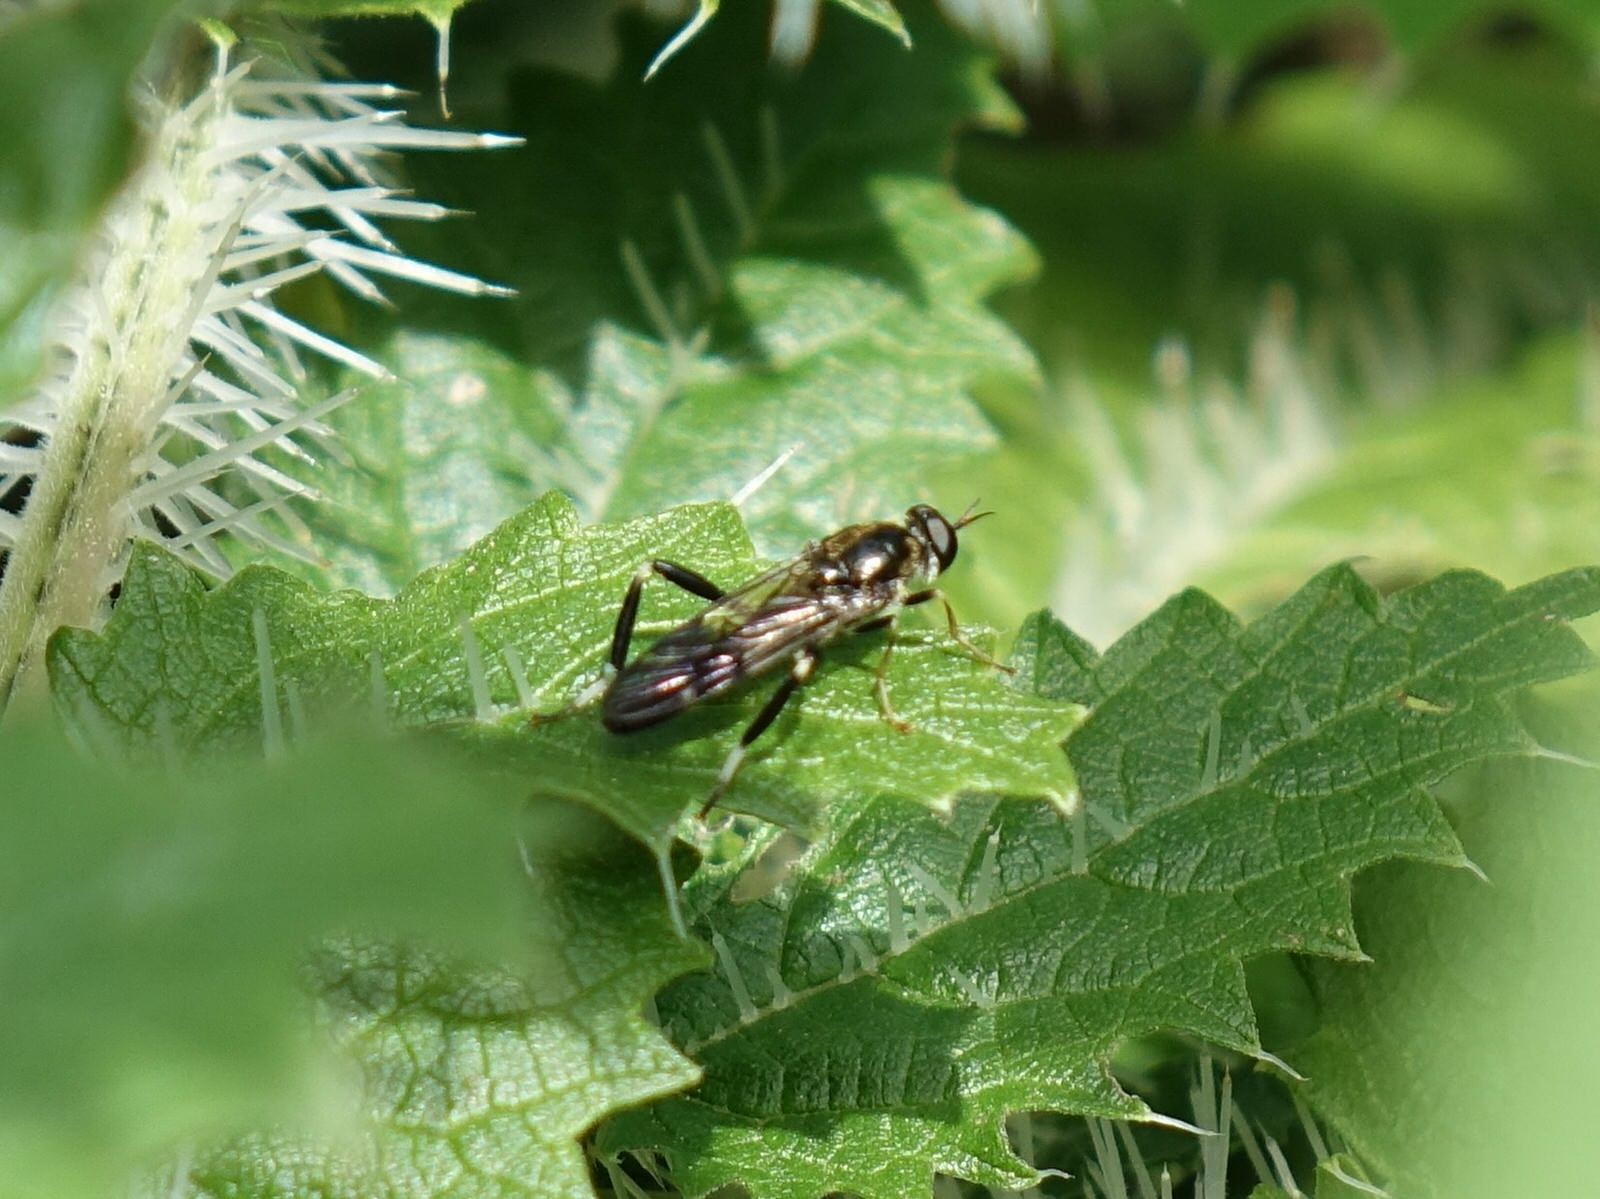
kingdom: Animalia
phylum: Arthropoda
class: Insecta
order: Diptera
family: Stratiomyidae
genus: Exaireta
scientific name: Exaireta spinigera
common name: Blue soldier fly
